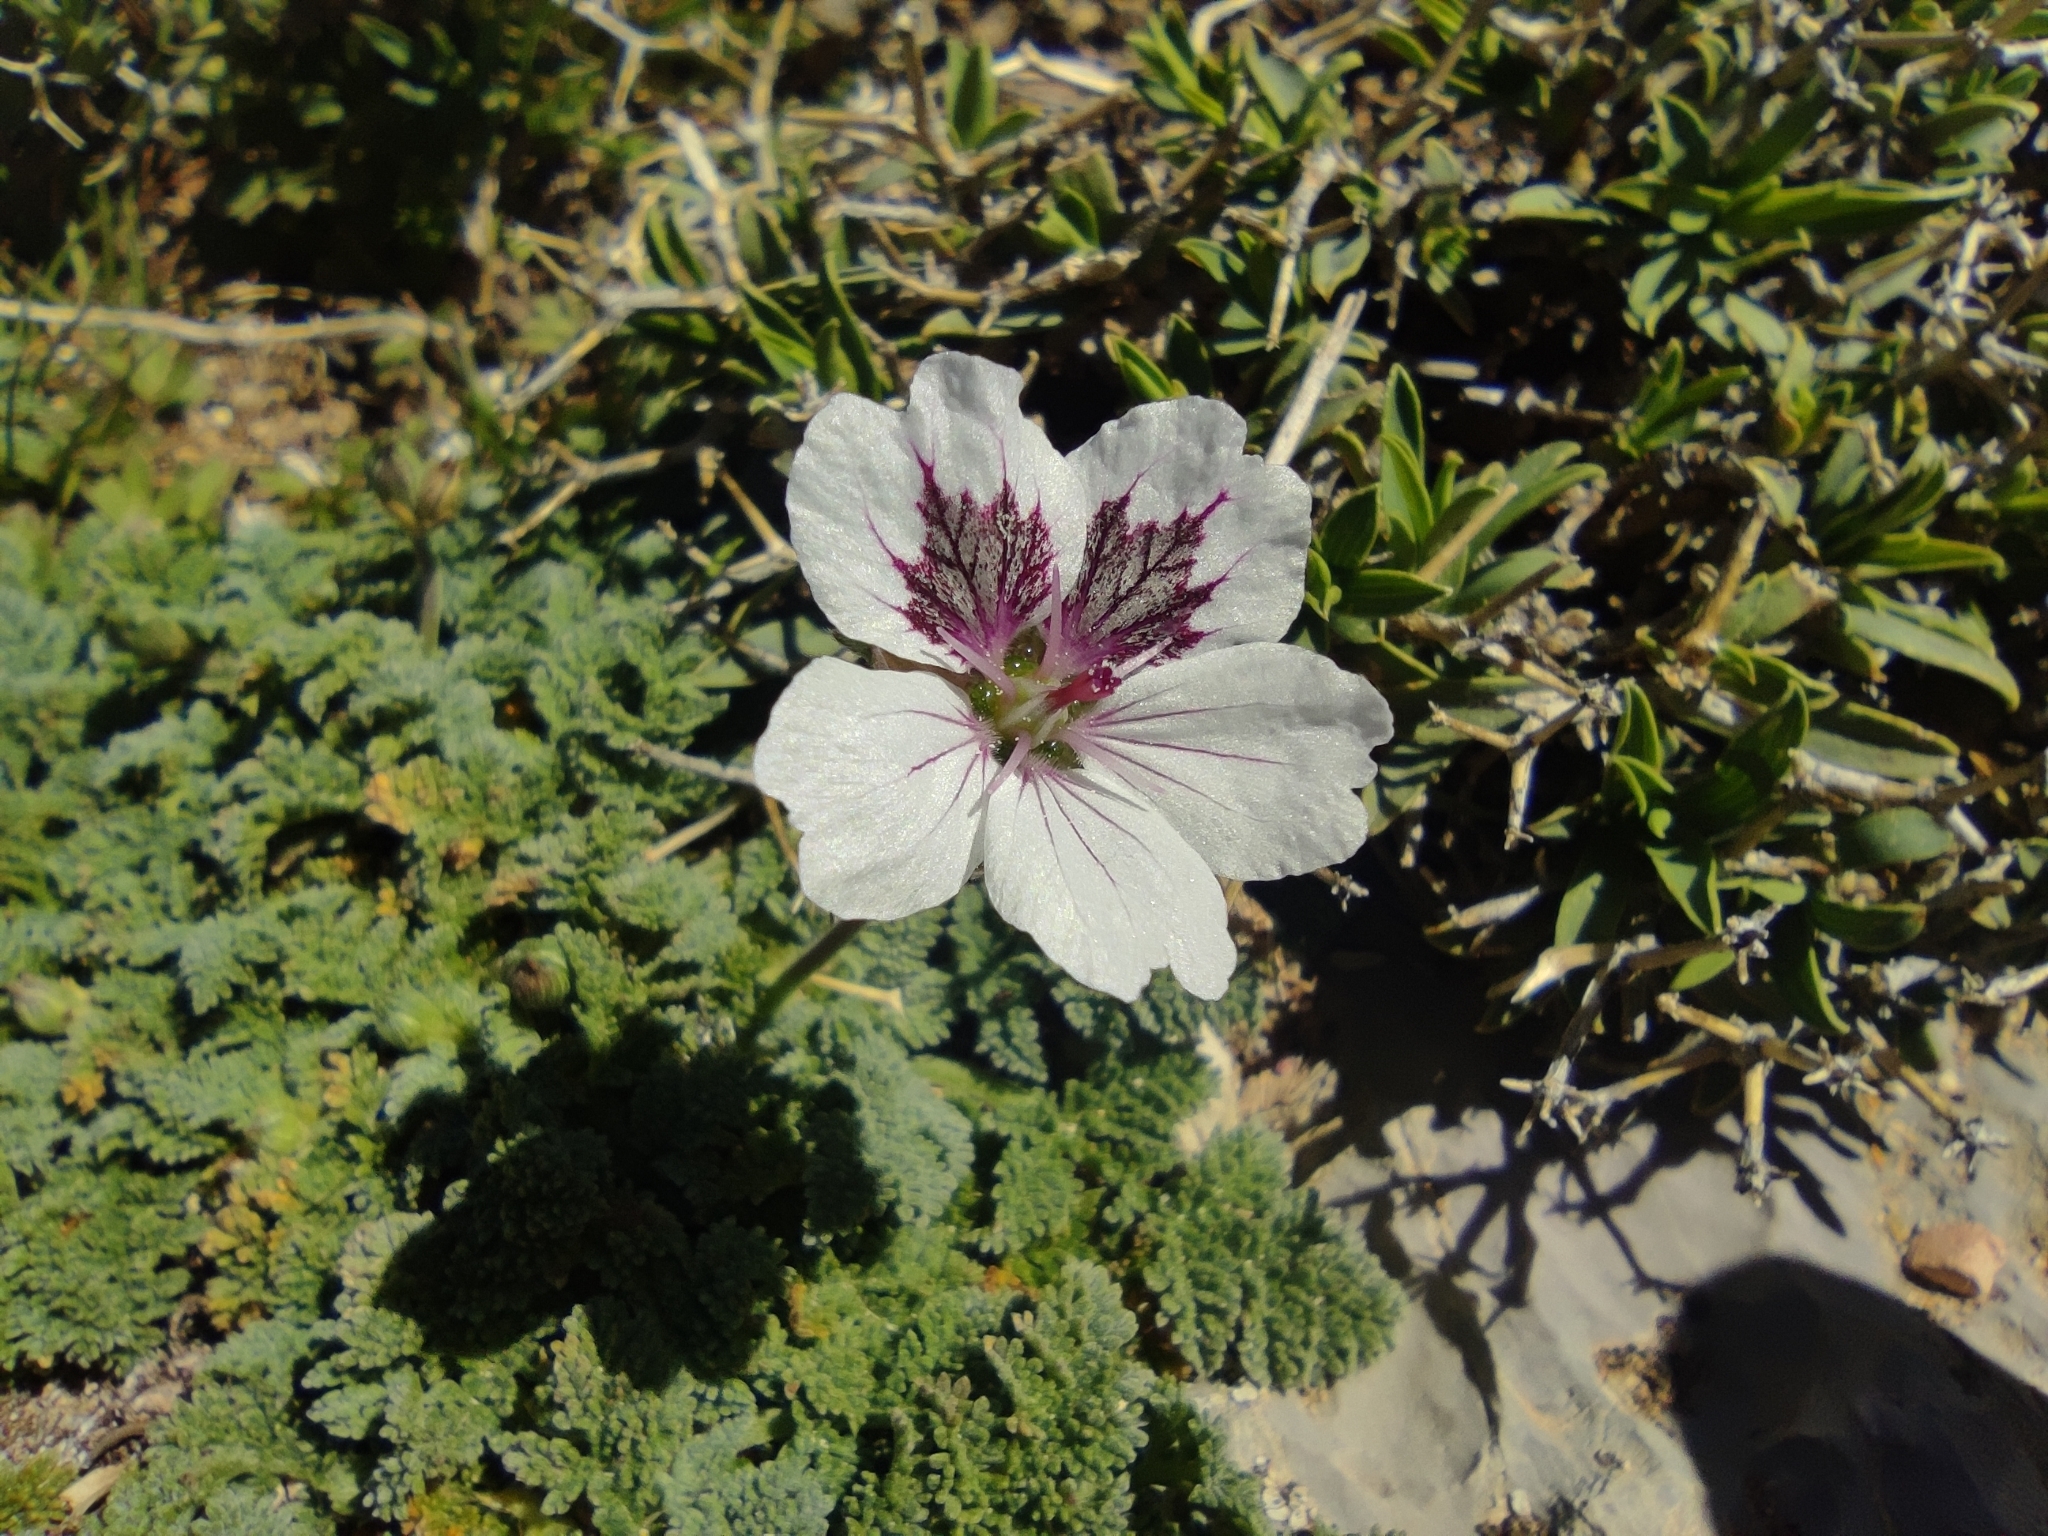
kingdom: Plantae
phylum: Tracheophyta
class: Magnoliopsida
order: Geraniales
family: Geraniaceae
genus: Erodium
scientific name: Erodium cheilanthifolium
